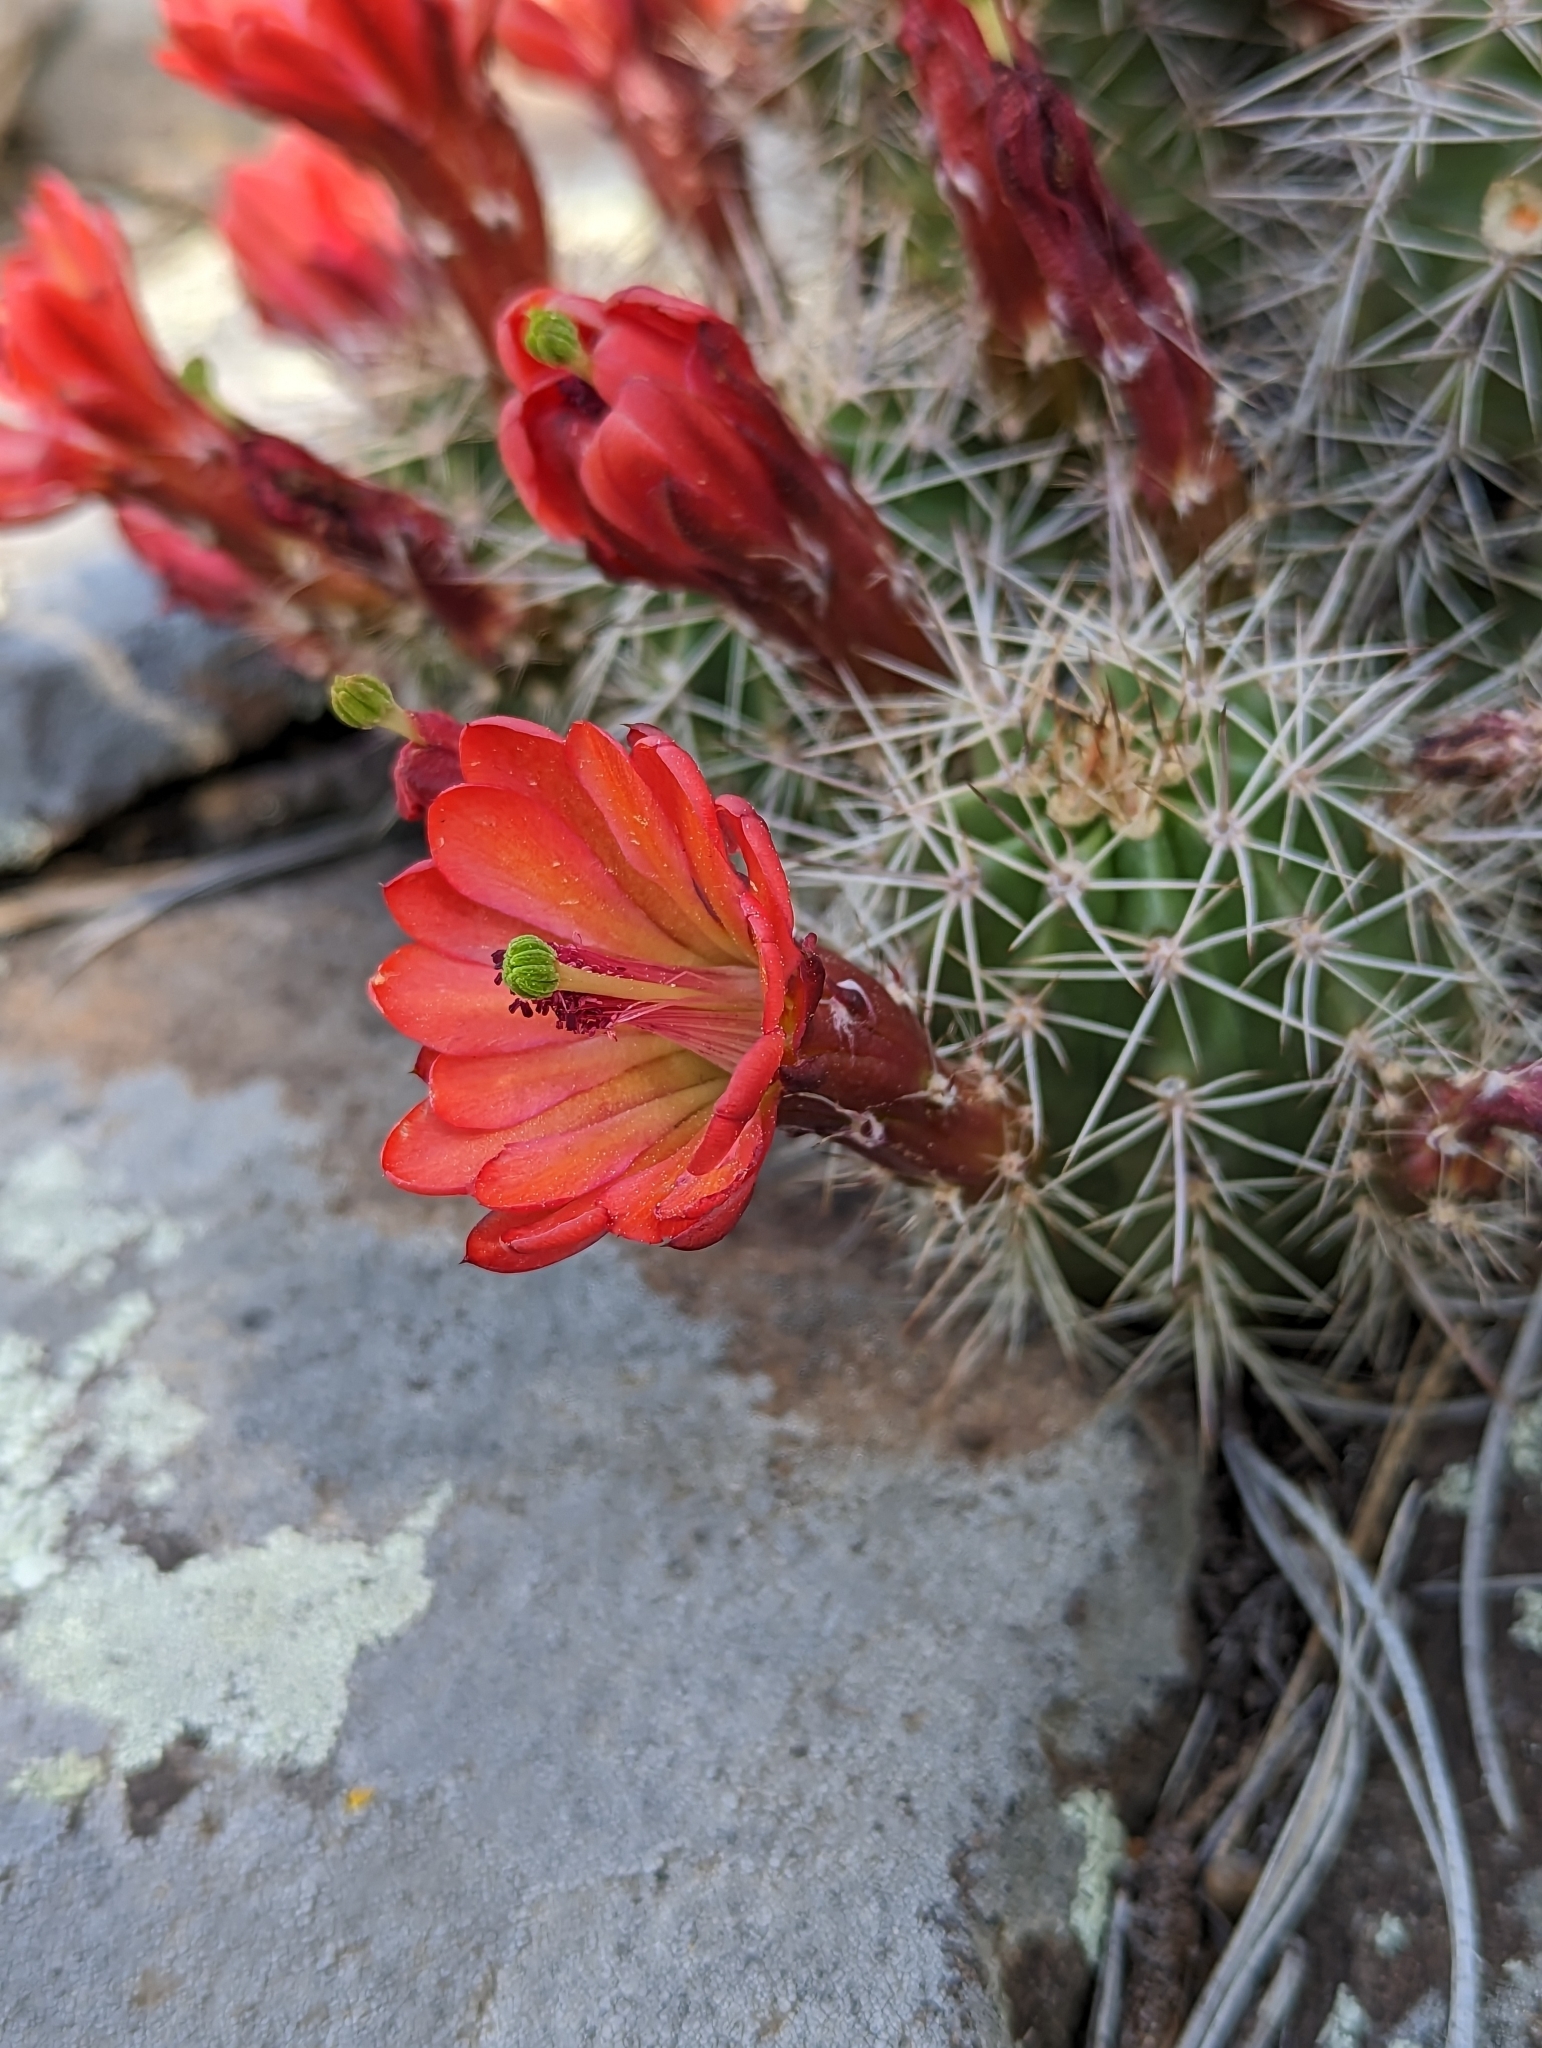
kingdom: Plantae
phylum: Tracheophyta
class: Magnoliopsida
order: Caryophyllales
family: Cactaceae
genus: Echinocereus
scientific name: Echinocereus bakeri
